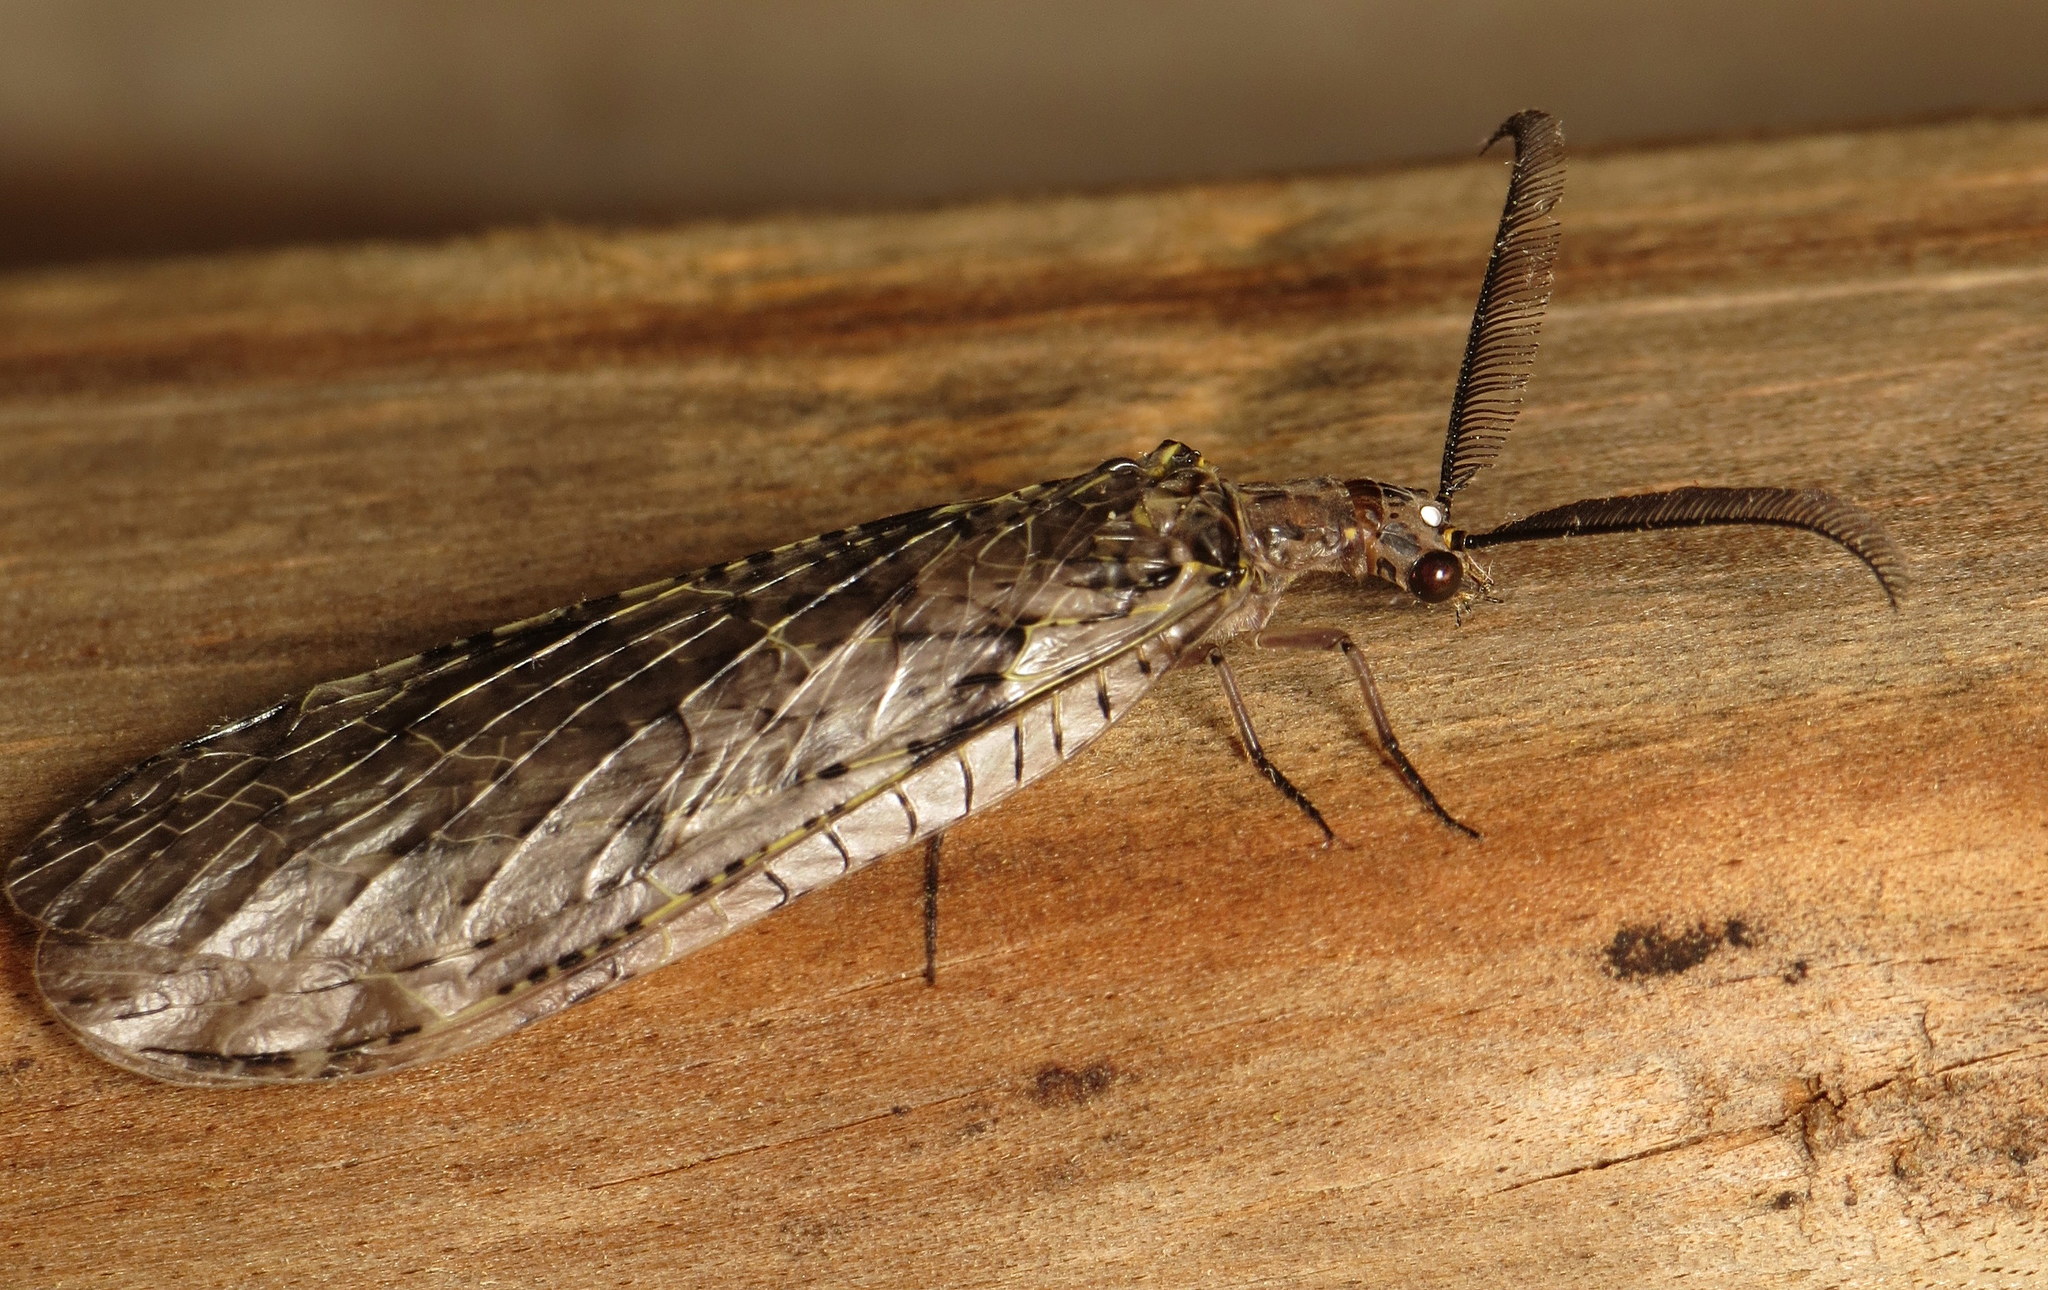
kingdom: Animalia
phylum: Arthropoda
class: Insecta
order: Megaloptera
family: Corydalidae
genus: Chauliodes
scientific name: Chauliodes rastricornis
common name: Spring fishfly
